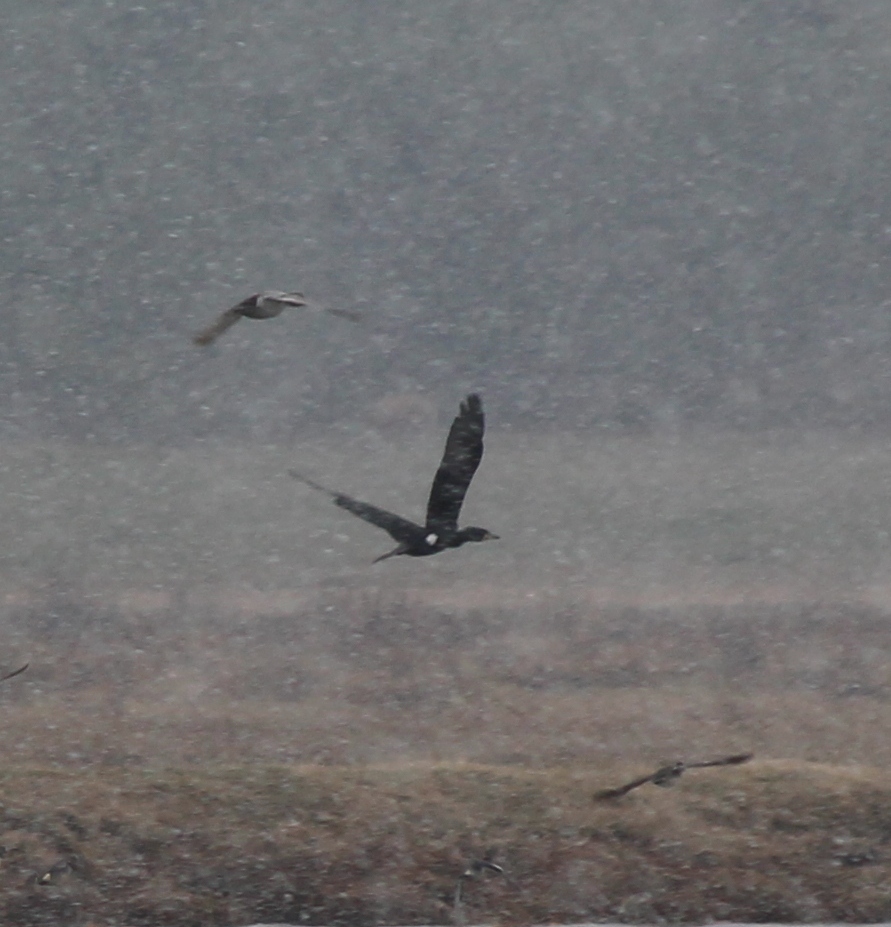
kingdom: Animalia
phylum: Chordata
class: Aves
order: Suliformes
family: Phalacrocoracidae
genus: Phalacrocorax
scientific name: Phalacrocorax carbo
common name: Great cormorant
